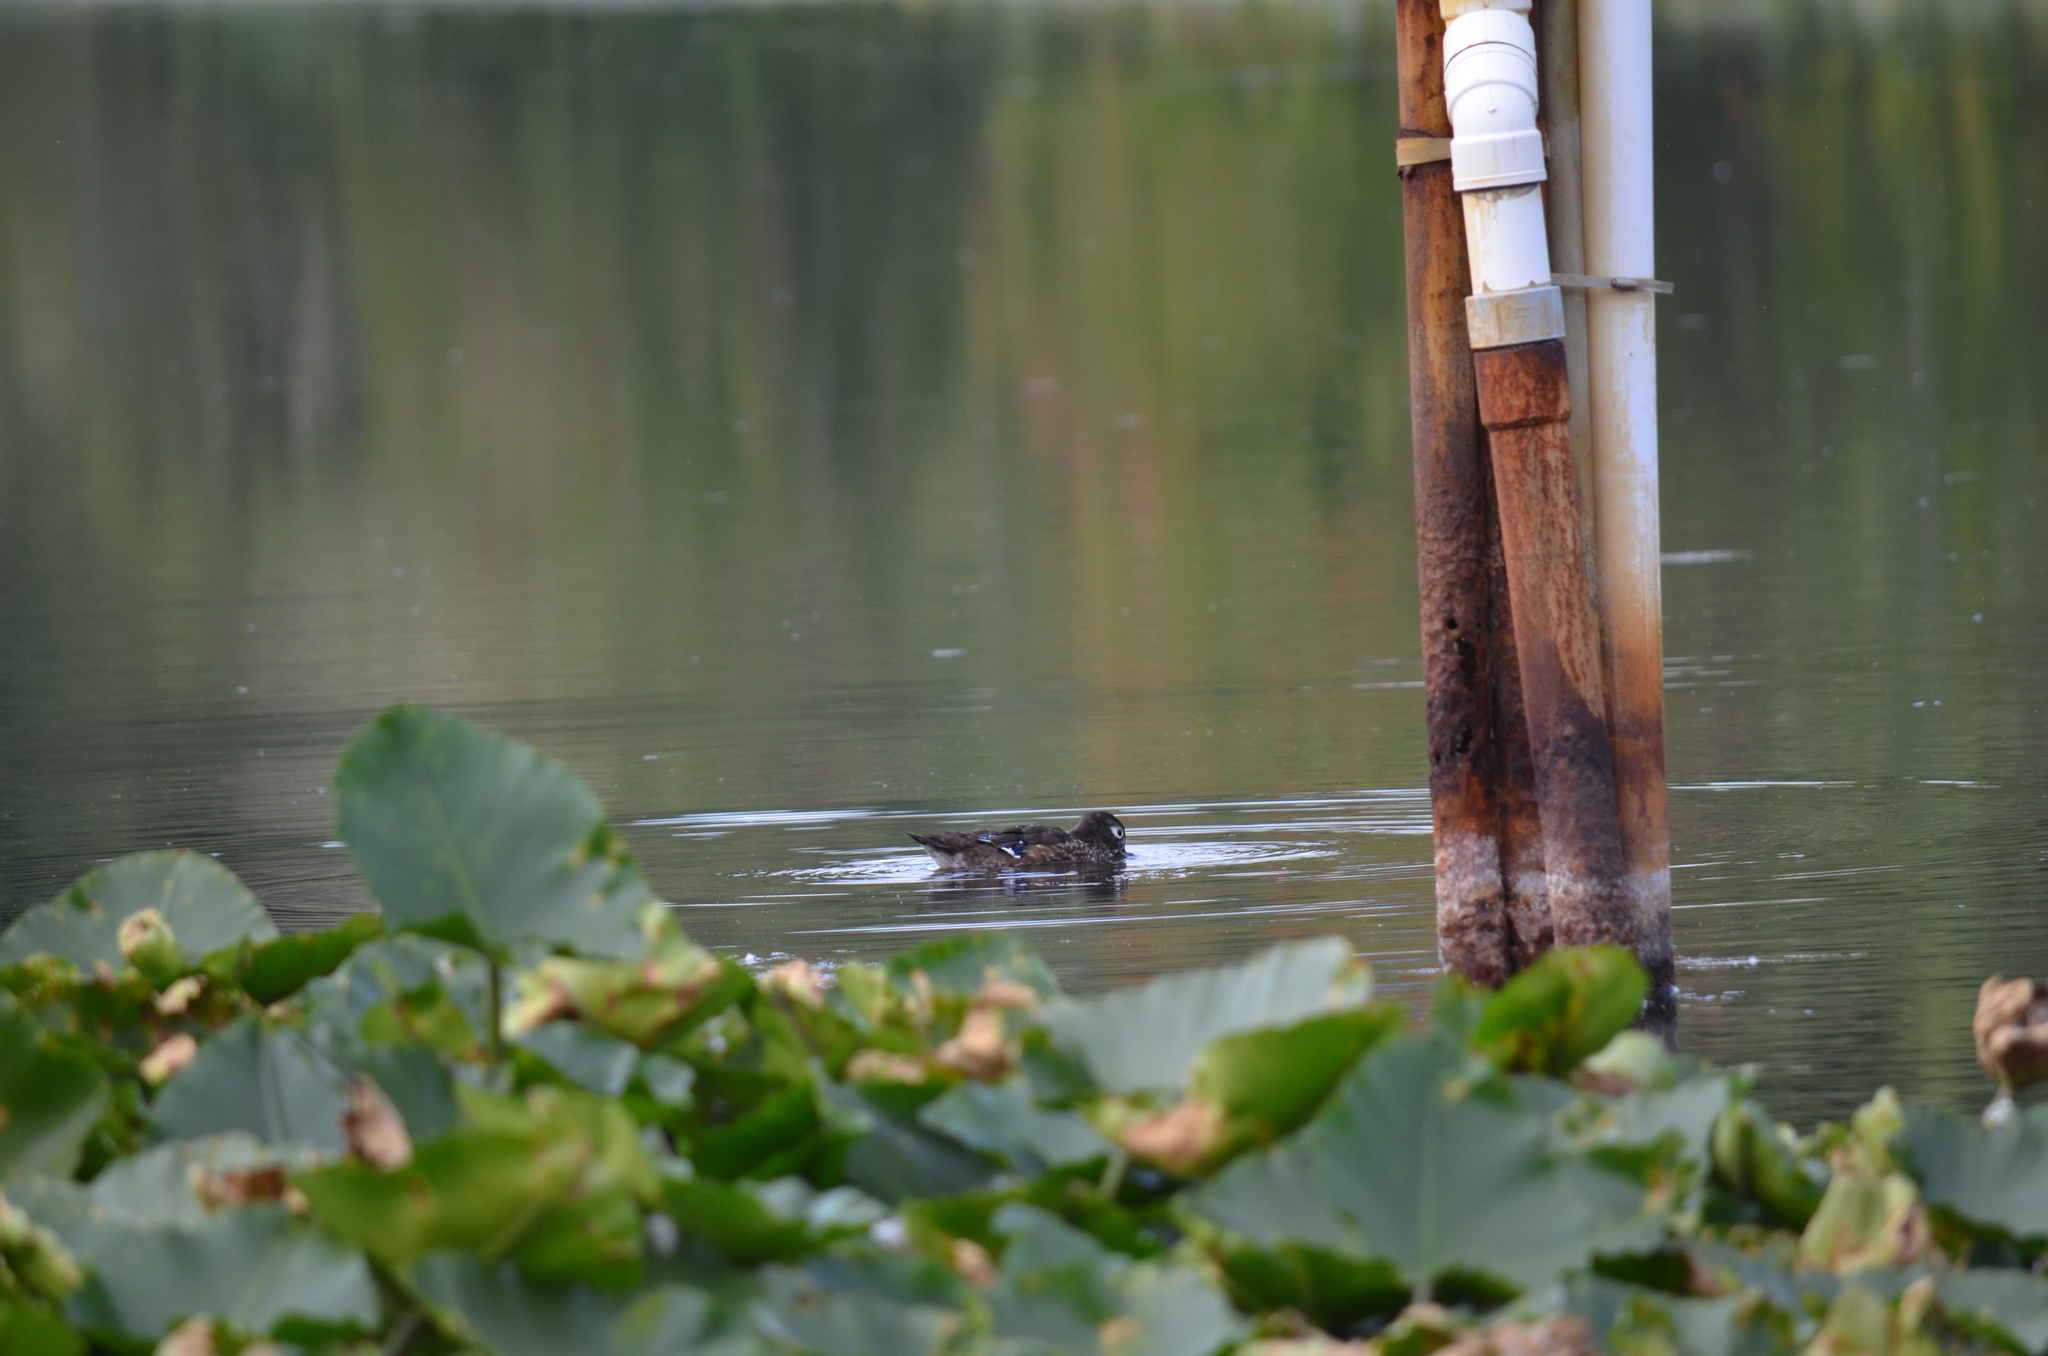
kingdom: Animalia
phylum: Chordata
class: Aves
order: Anseriformes
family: Anatidae
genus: Aix
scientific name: Aix sponsa
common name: Wood duck
